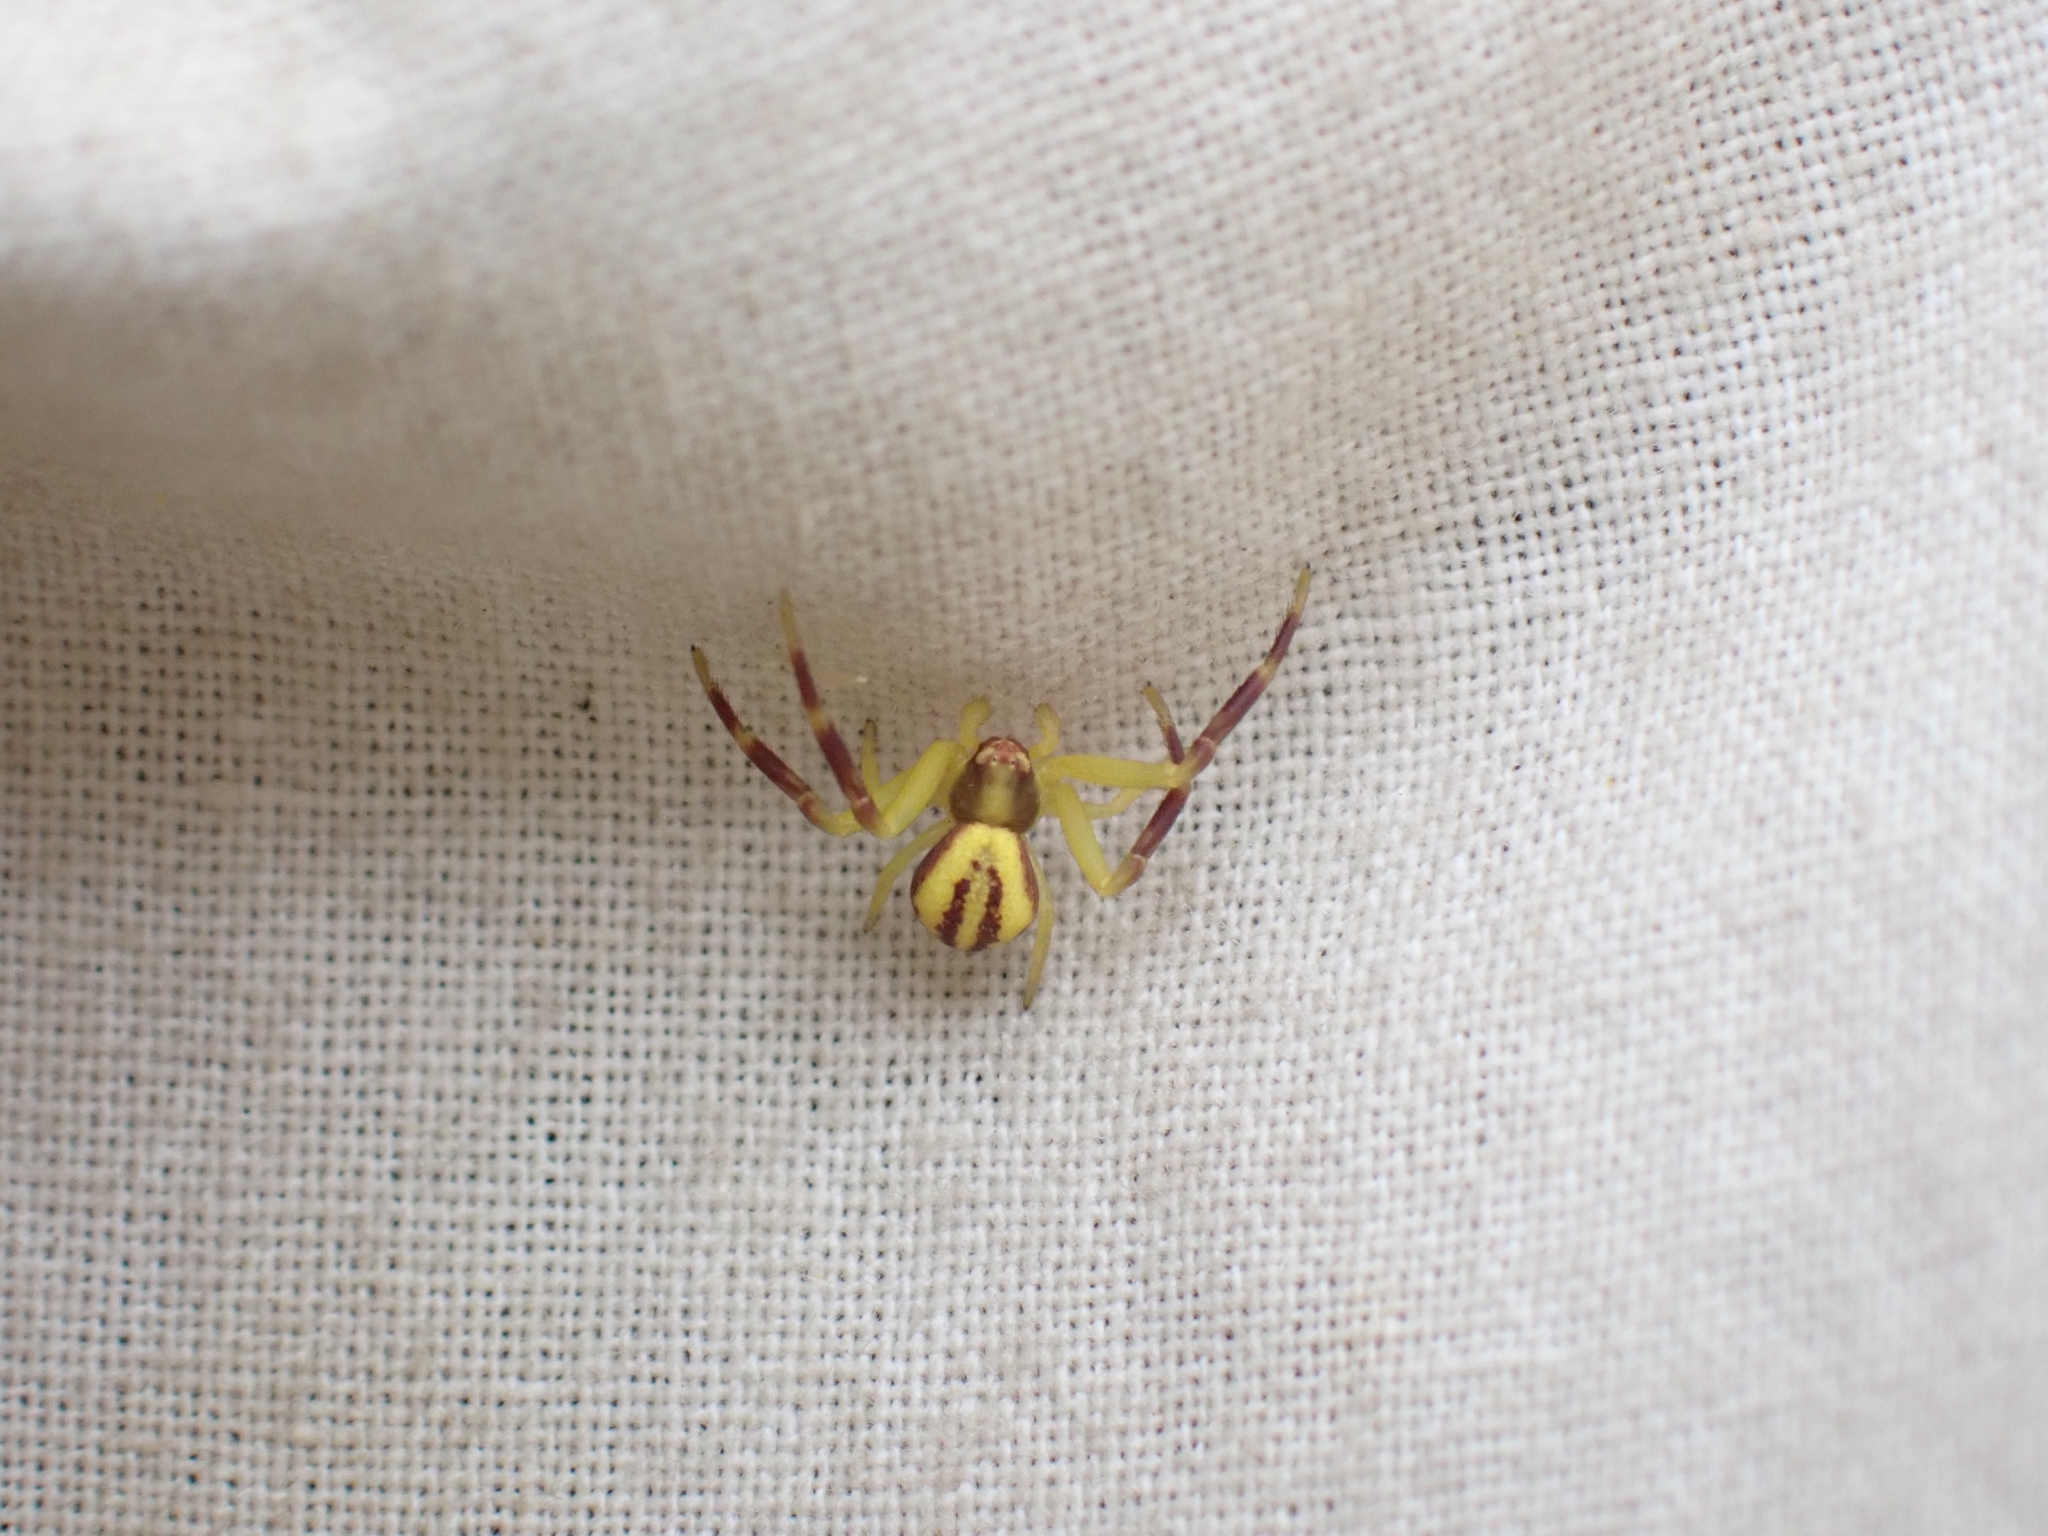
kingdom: Animalia
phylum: Arthropoda
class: Arachnida
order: Araneae
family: Thomisidae
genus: Misumena
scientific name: Misumena vatia
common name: Goldenrod crab spider
